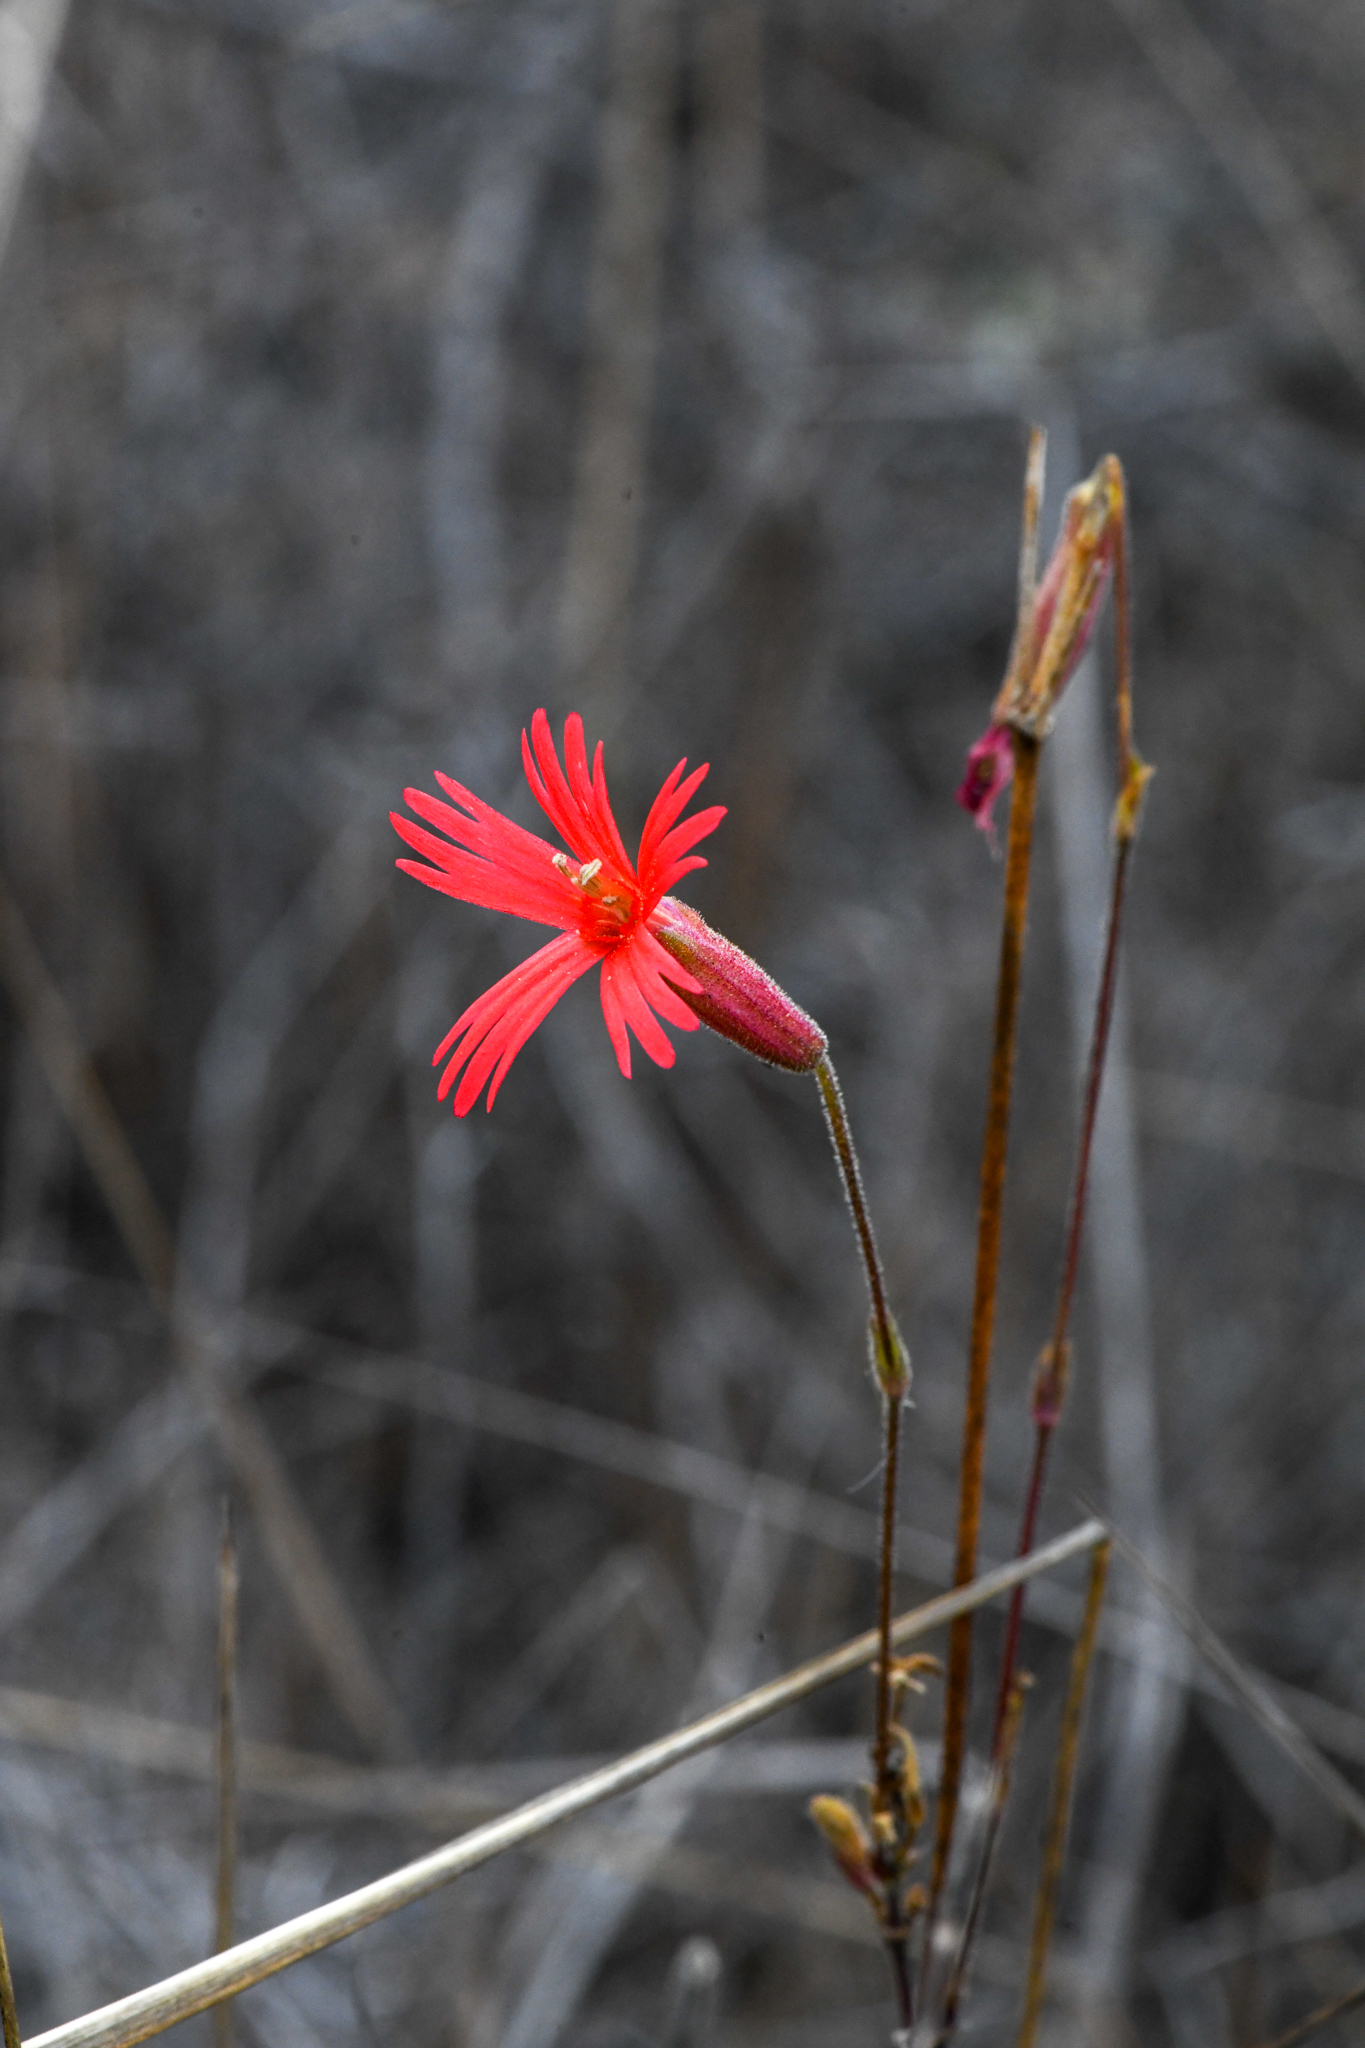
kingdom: Plantae
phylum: Tracheophyta
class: Magnoliopsida
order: Caryophyllales
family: Caryophyllaceae
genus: Silene
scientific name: Silene laciniata
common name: Indian-pink
